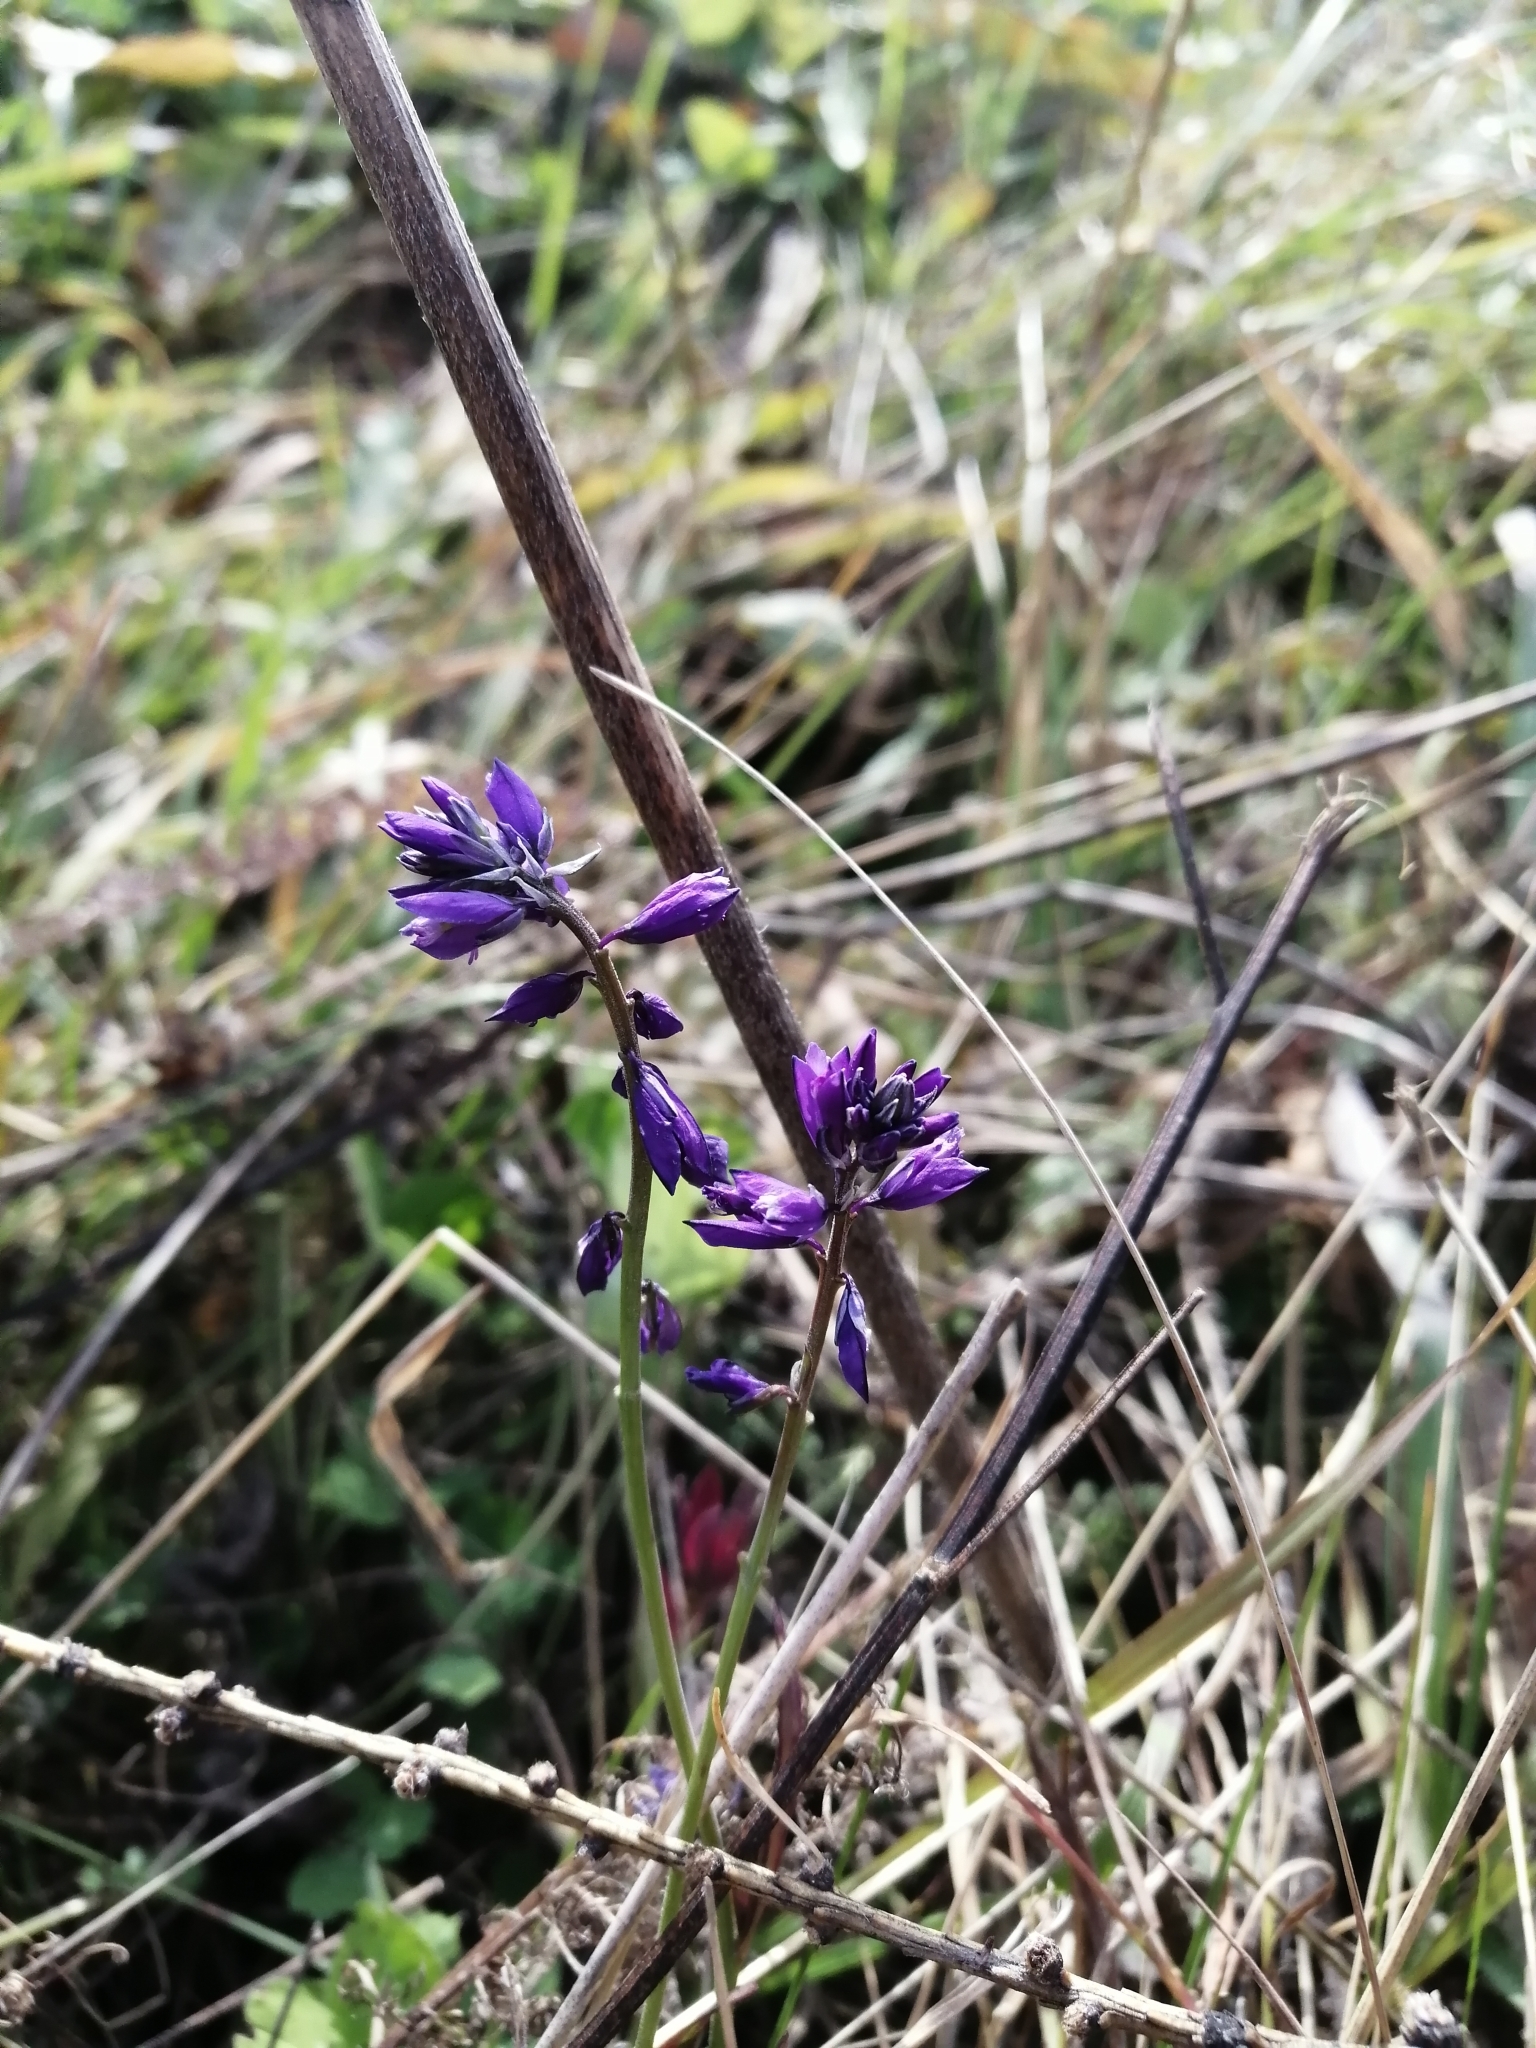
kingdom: Plantae
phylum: Tracheophyta
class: Magnoliopsida
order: Fabales
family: Polygalaceae
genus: Polygala
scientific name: Polygala comosa
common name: Tufted milkwort
